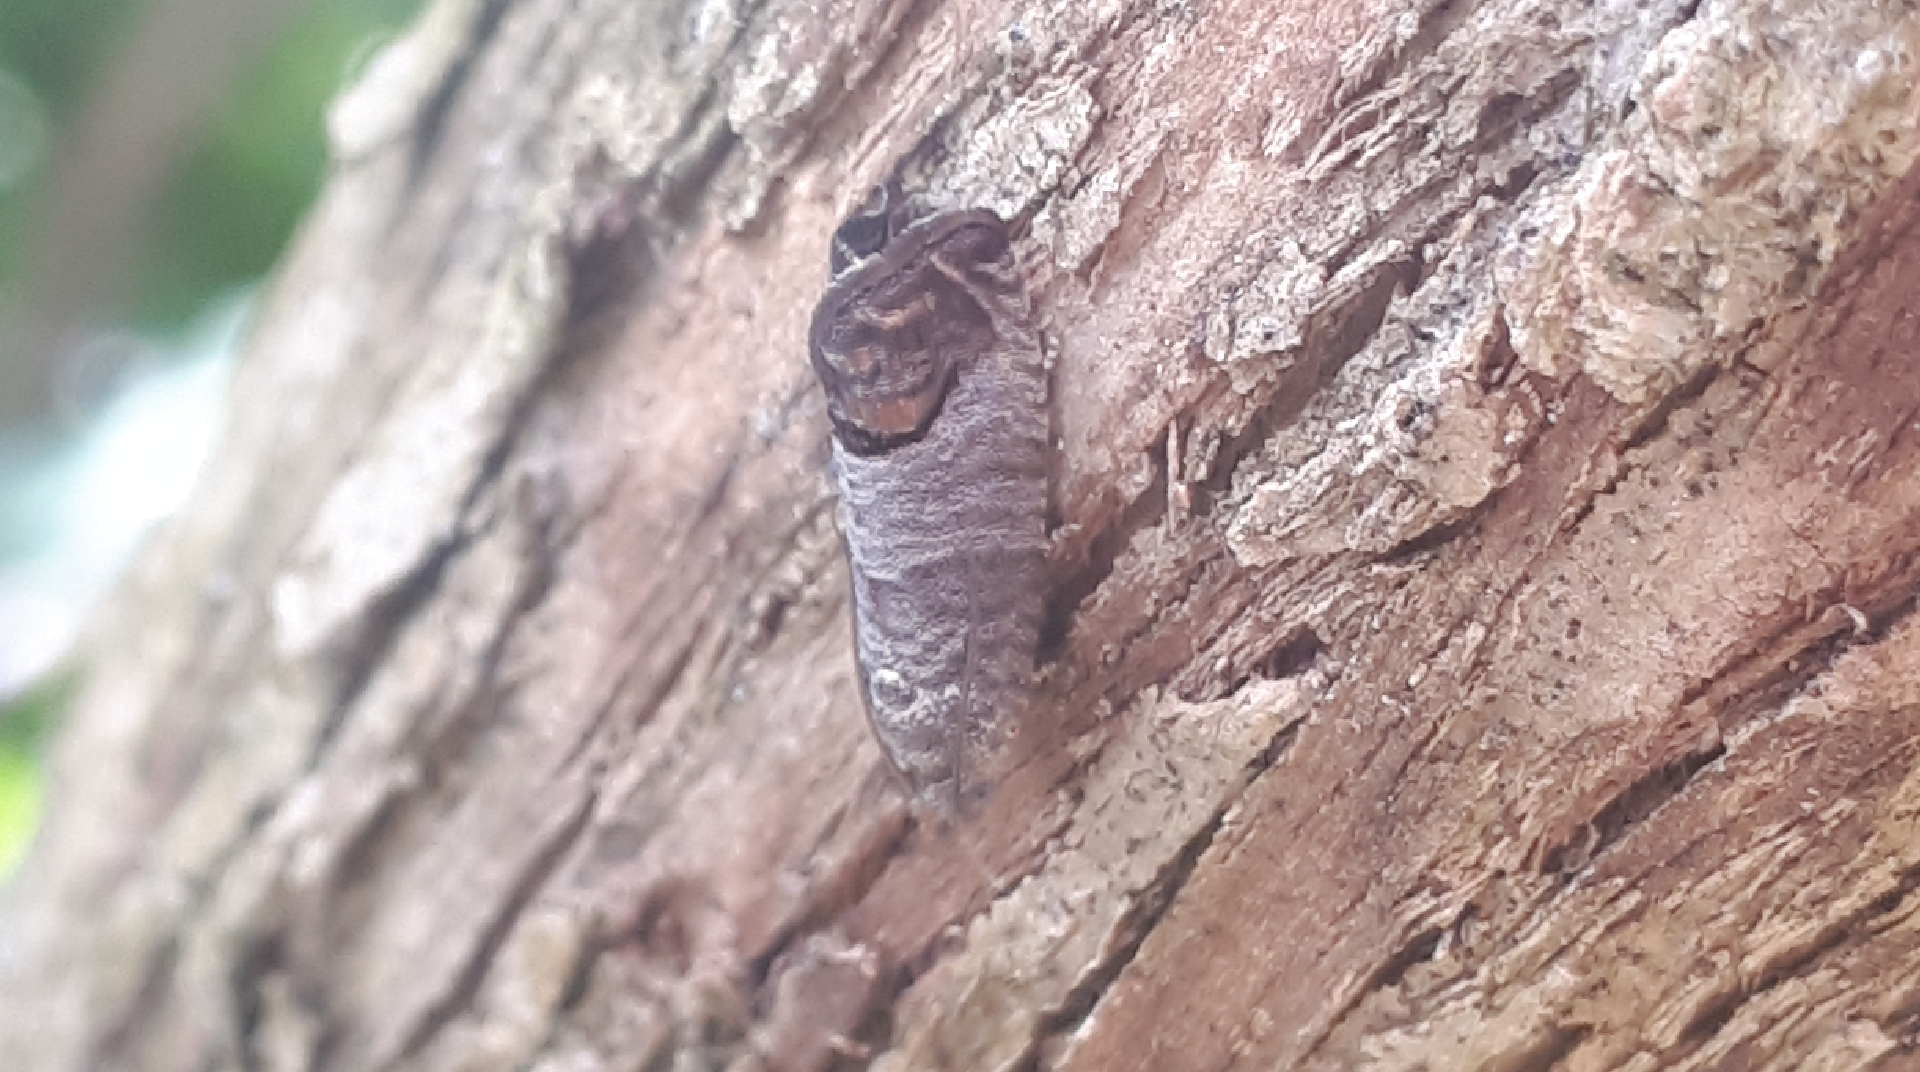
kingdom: Animalia
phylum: Arthropoda
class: Insecta
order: Lepidoptera
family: Tortricidae
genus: Cydia
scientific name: Cydia pomonella
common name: Codling moth
